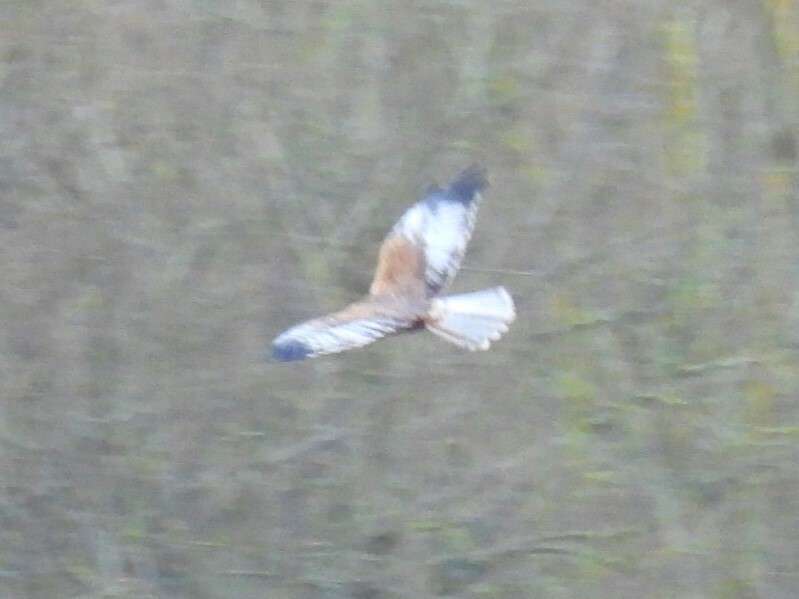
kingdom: Animalia
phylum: Chordata
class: Aves
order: Accipitriformes
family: Accipitridae
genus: Circus
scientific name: Circus aeruginosus
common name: Western marsh harrier
